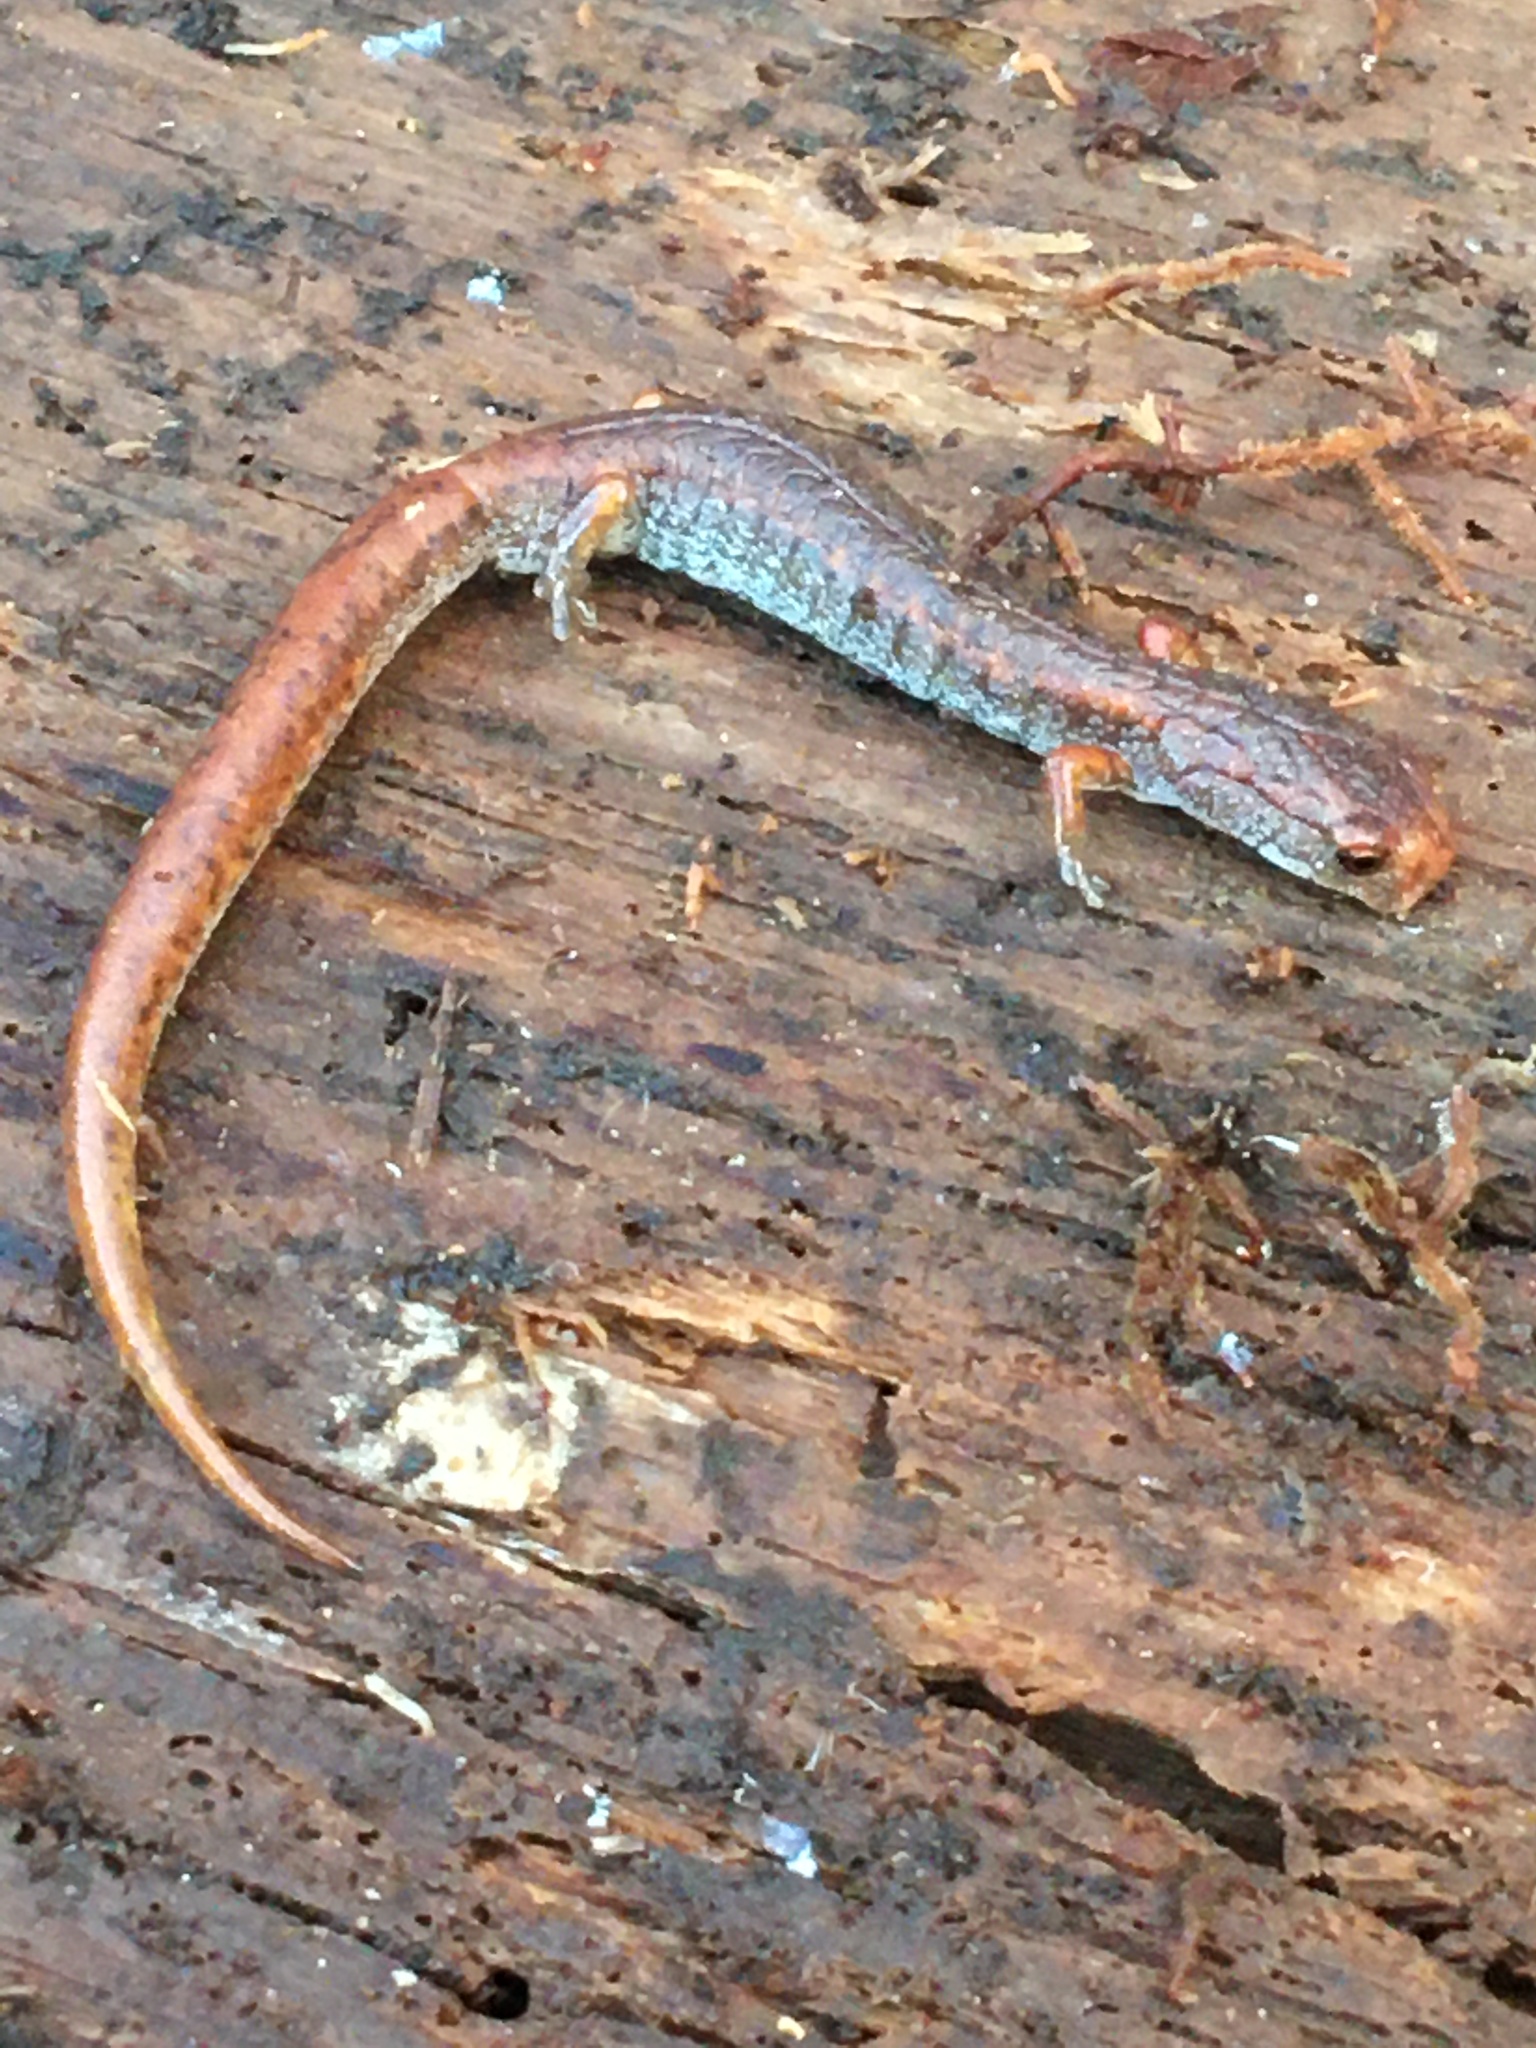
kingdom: Animalia
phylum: Chordata
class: Amphibia
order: Caudata
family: Plethodontidae
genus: Hemidactylium
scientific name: Hemidactylium scutatum
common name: Four-toed salamander
